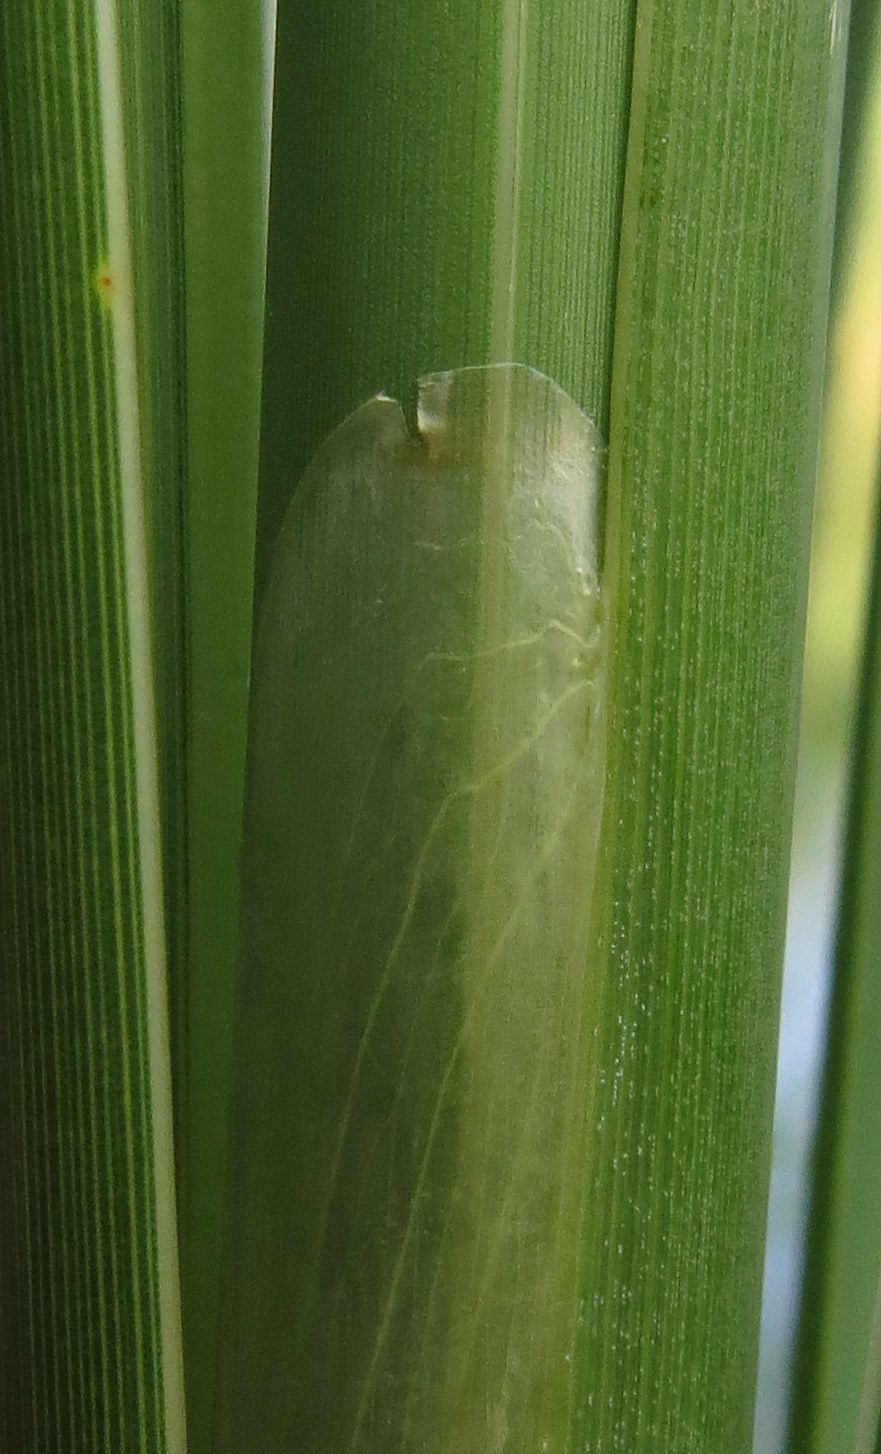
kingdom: Plantae
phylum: Tracheophyta
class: Liliopsida
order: Poales
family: Typhaceae
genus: Typha
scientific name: Typha angustifolia
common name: Lesser bulrush
